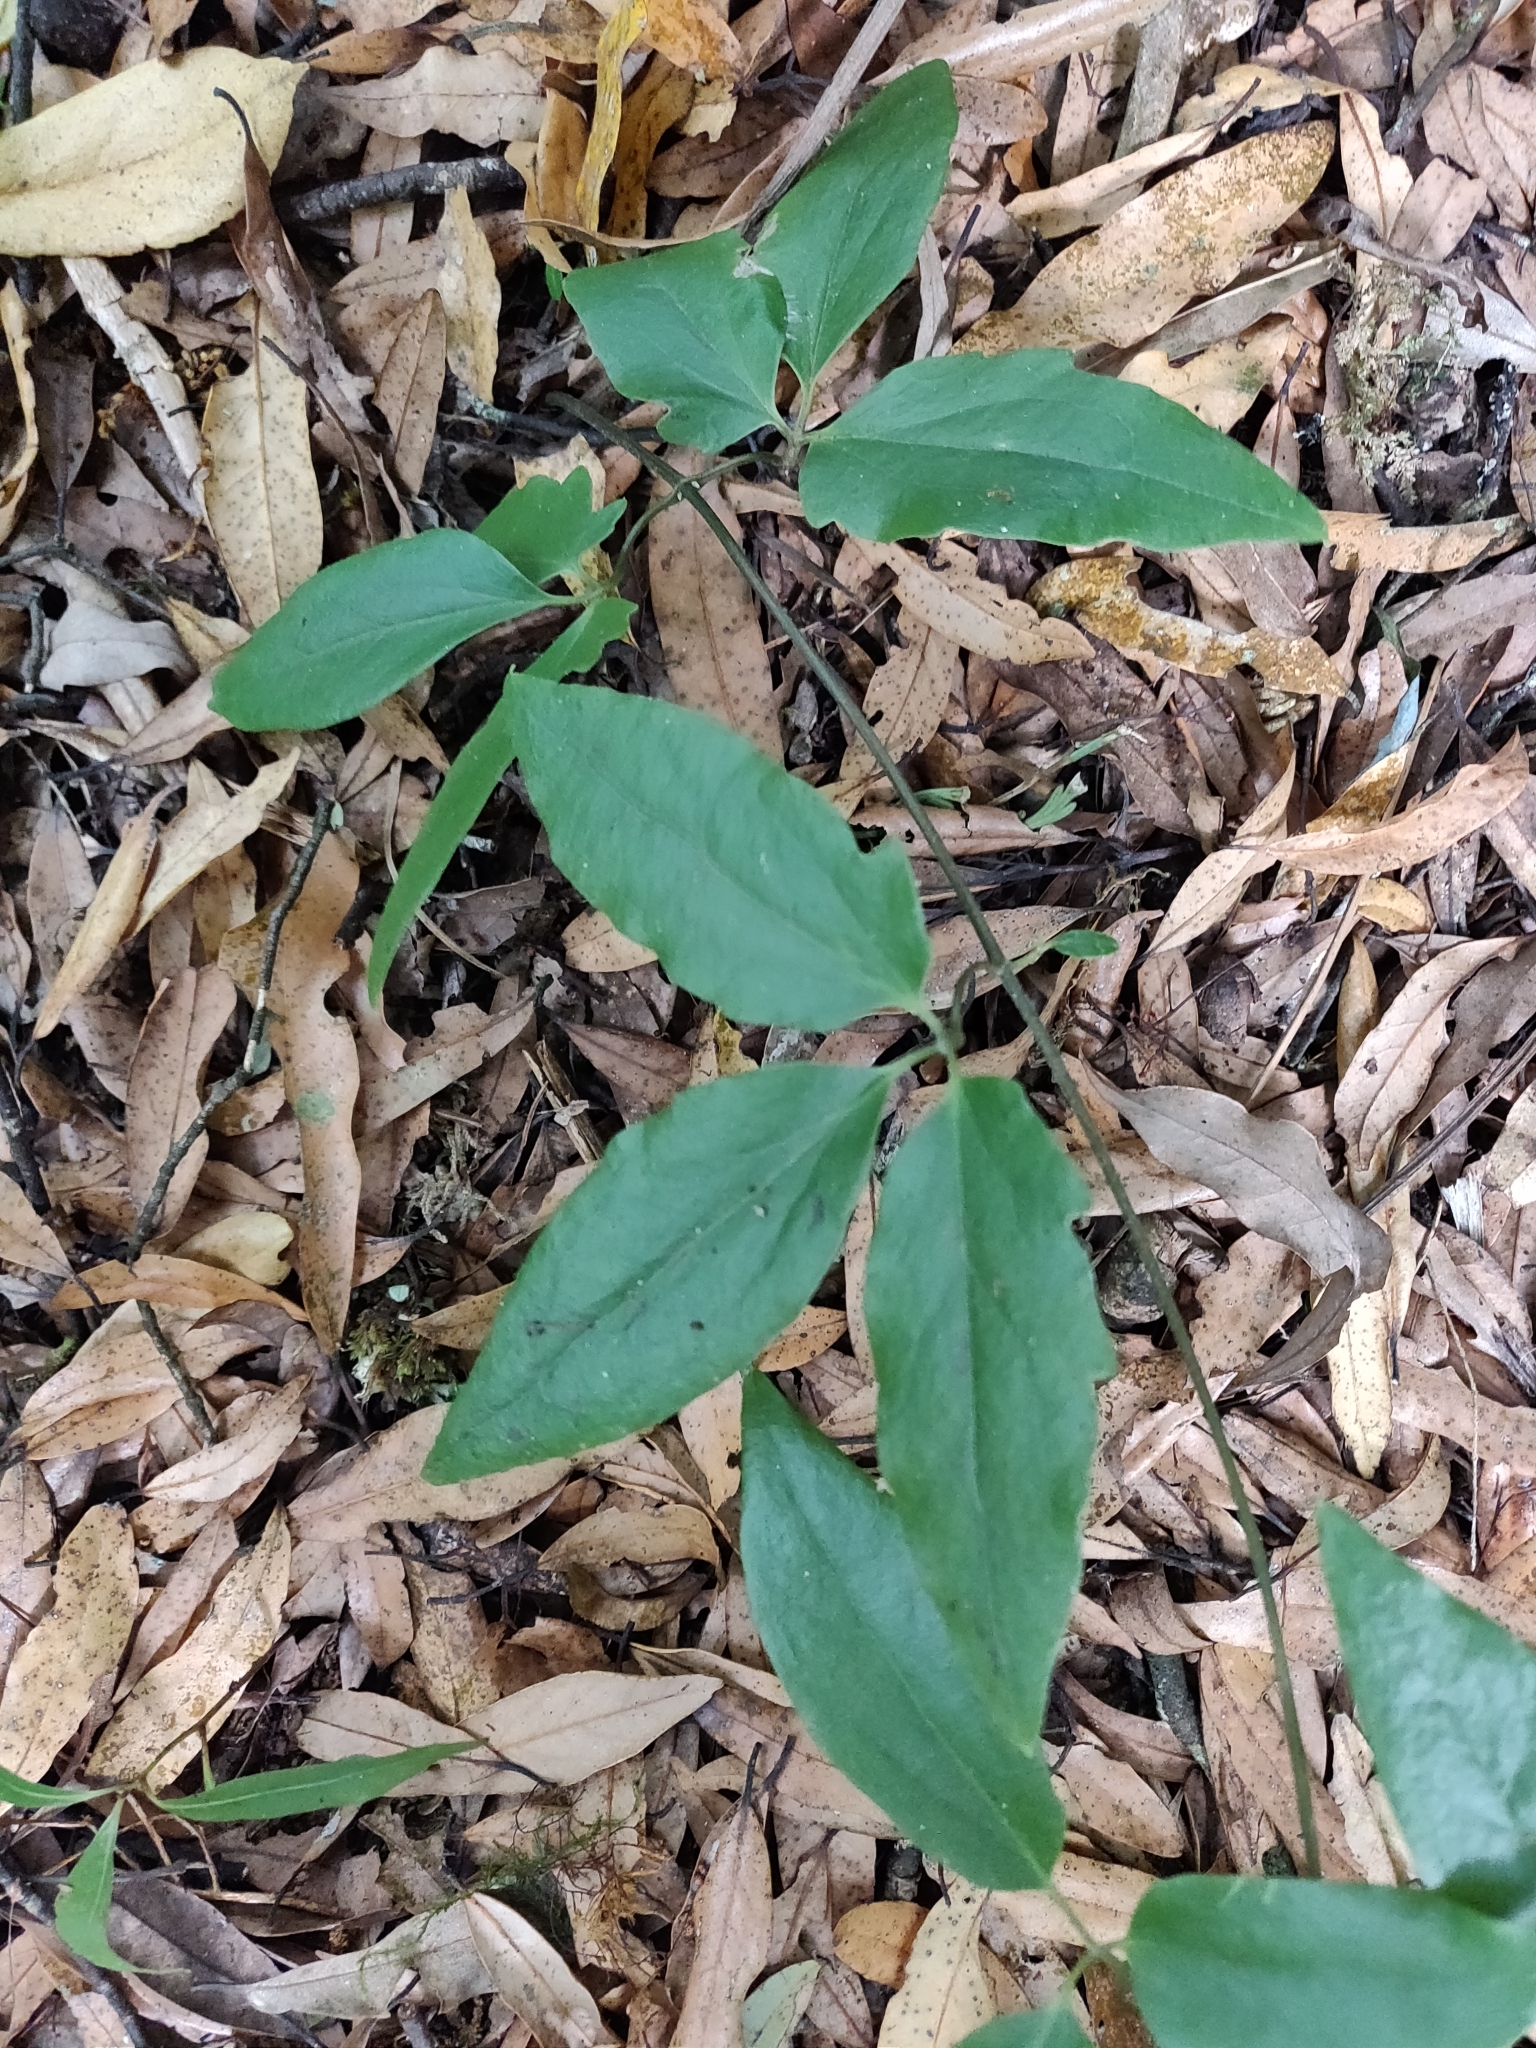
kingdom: Plantae
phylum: Tracheophyta
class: Magnoliopsida
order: Ranunculales
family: Ranunculaceae
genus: Clematis
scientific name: Clematis paniculata
